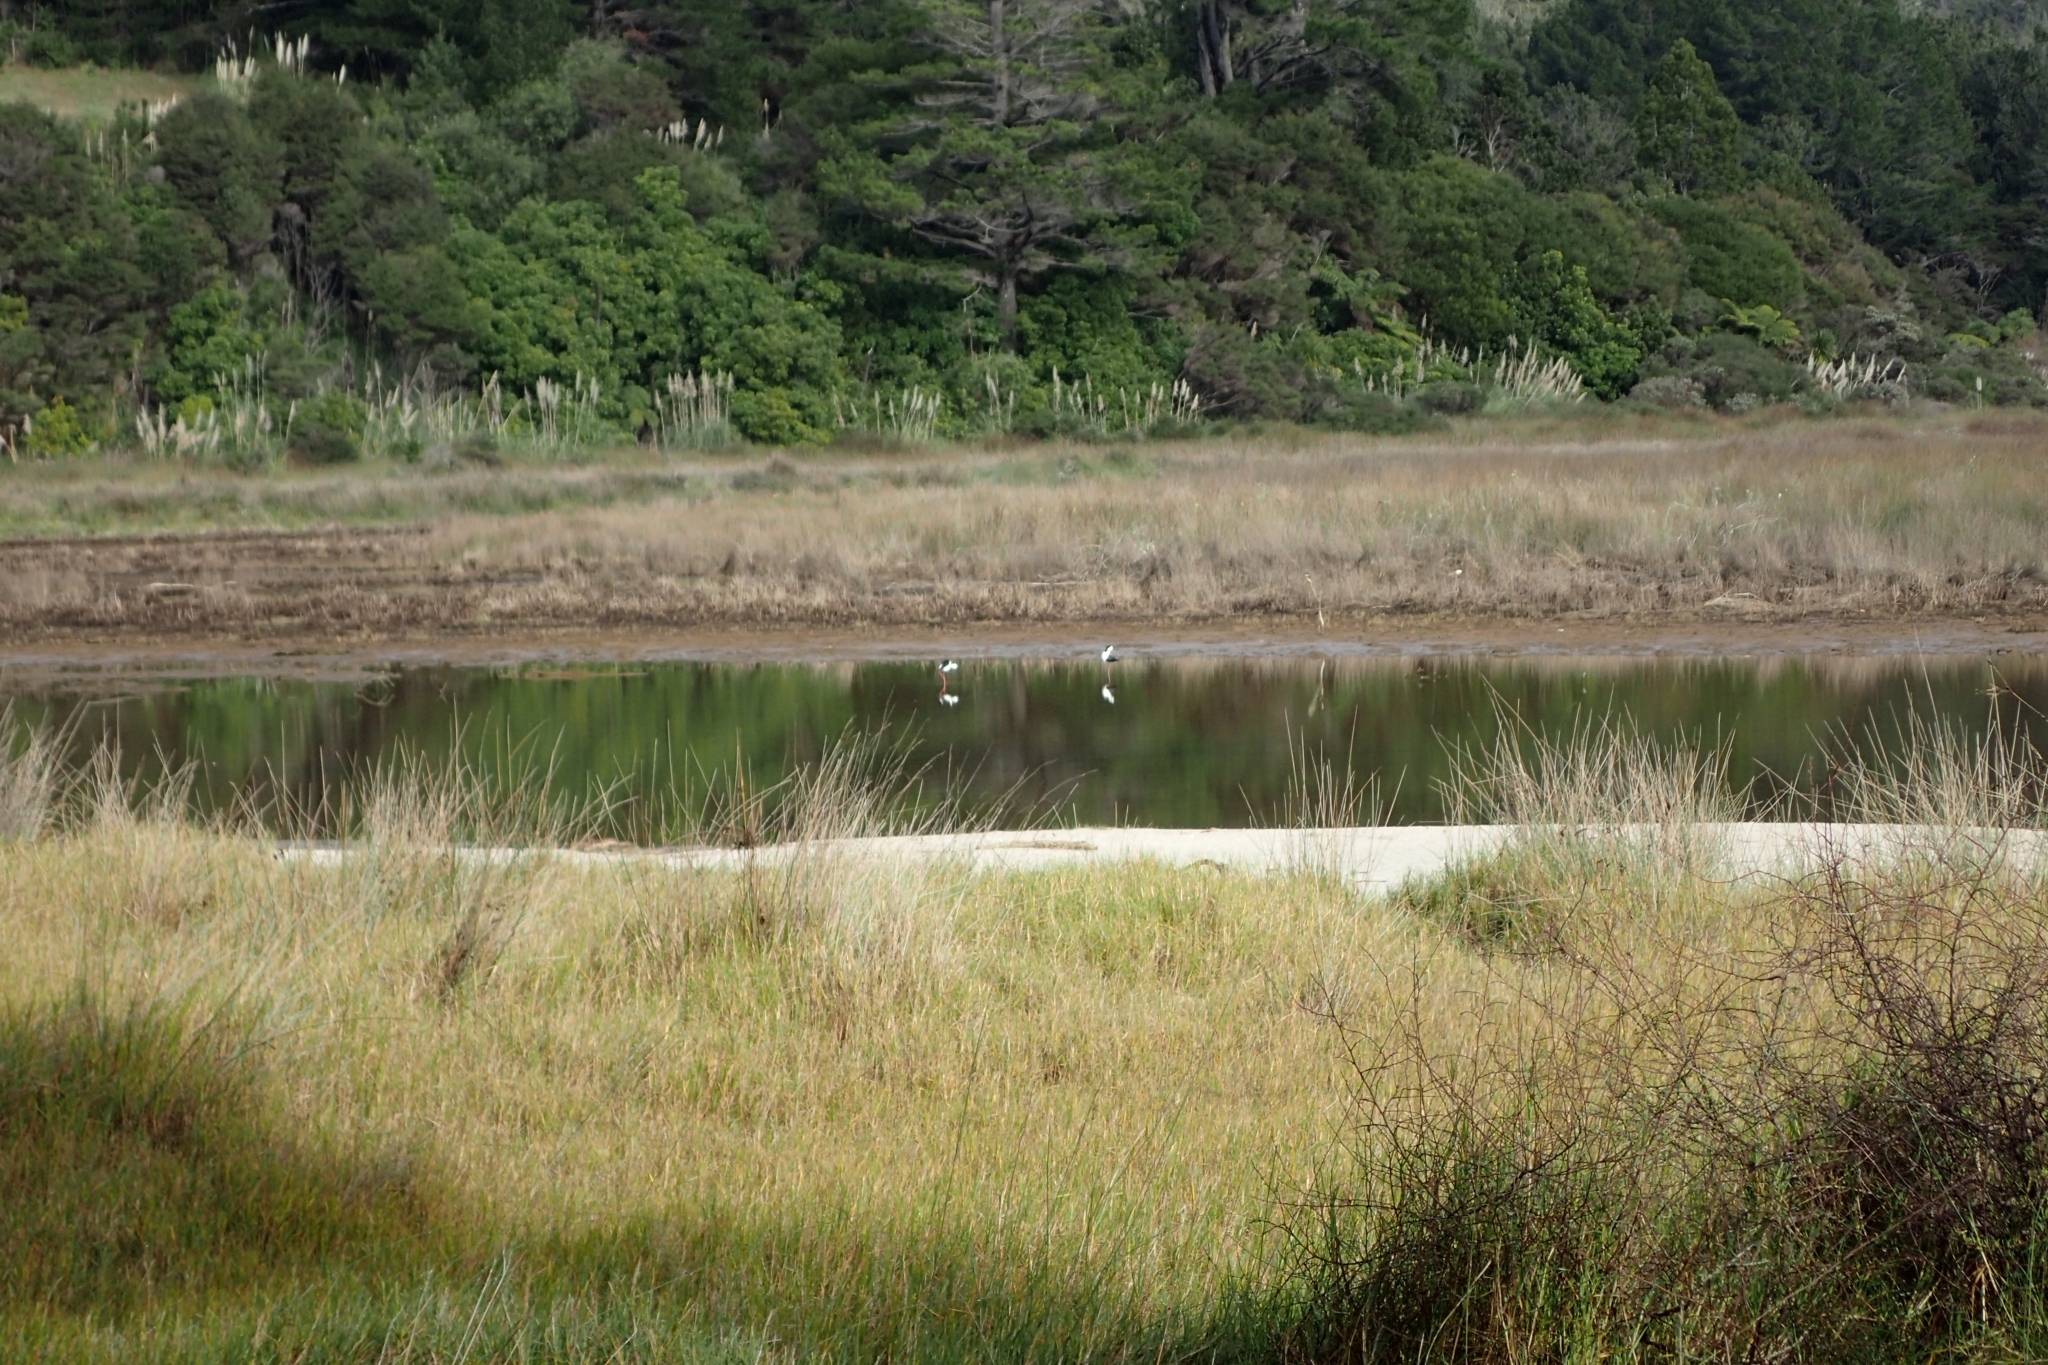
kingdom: Animalia
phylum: Chordata
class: Aves
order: Charadriiformes
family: Recurvirostridae
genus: Himantopus
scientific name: Himantopus leucocephalus
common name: White-headed stilt
